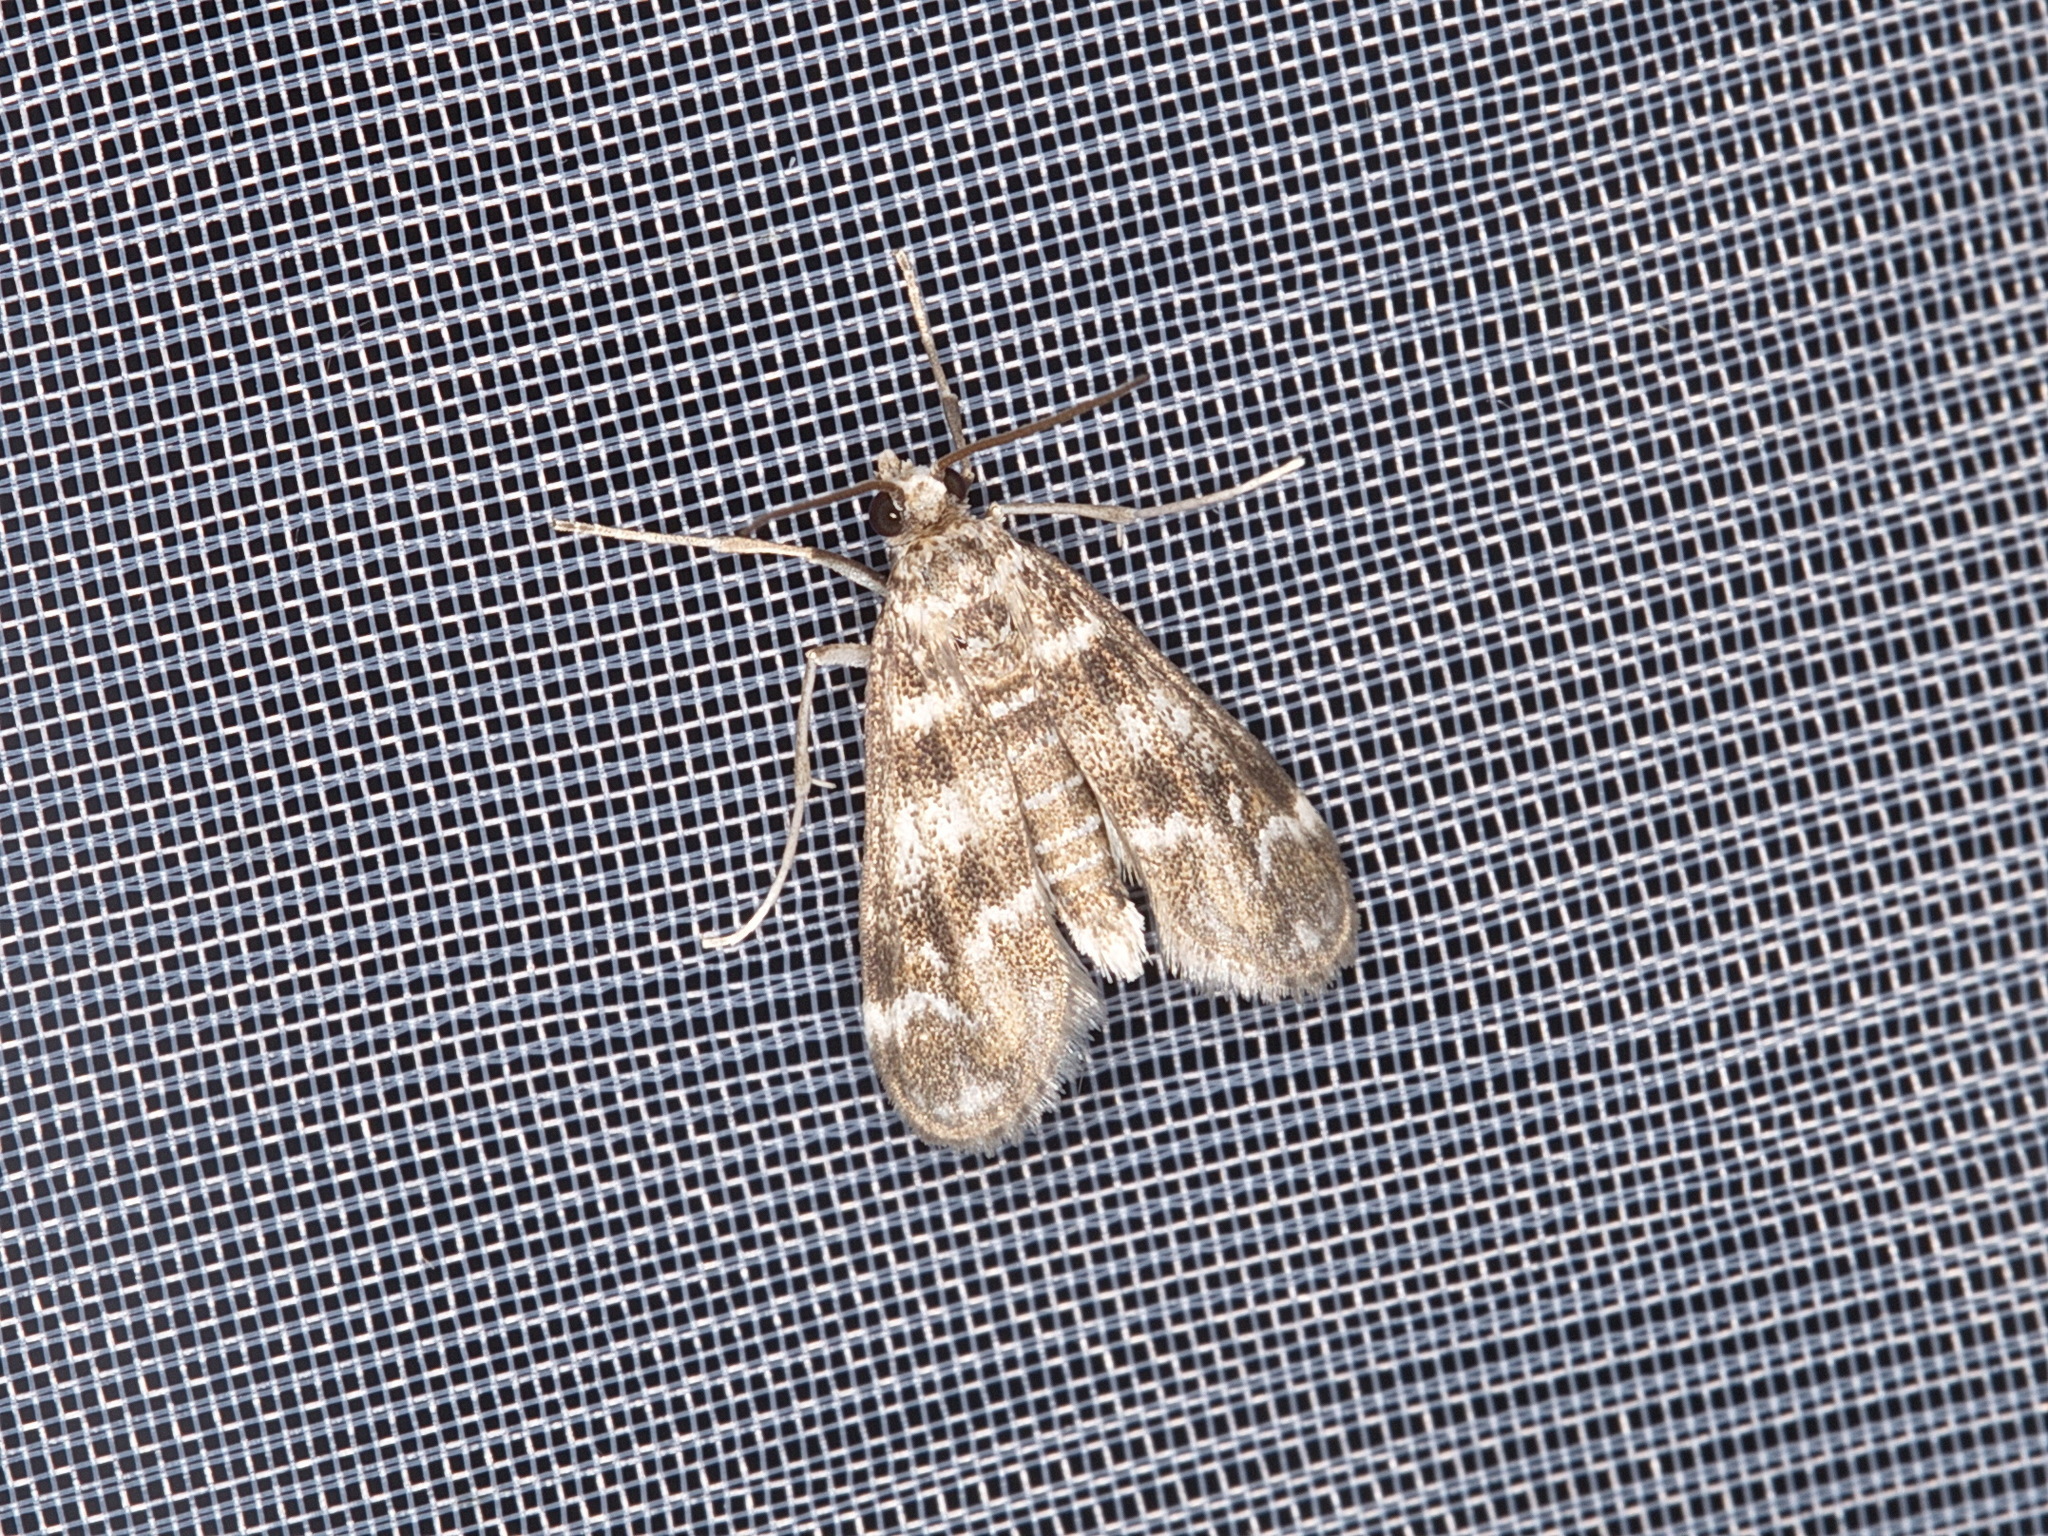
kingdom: Animalia
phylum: Arthropoda
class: Insecta
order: Lepidoptera
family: Crambidae
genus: Hygraula
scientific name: Hygraula nitens
